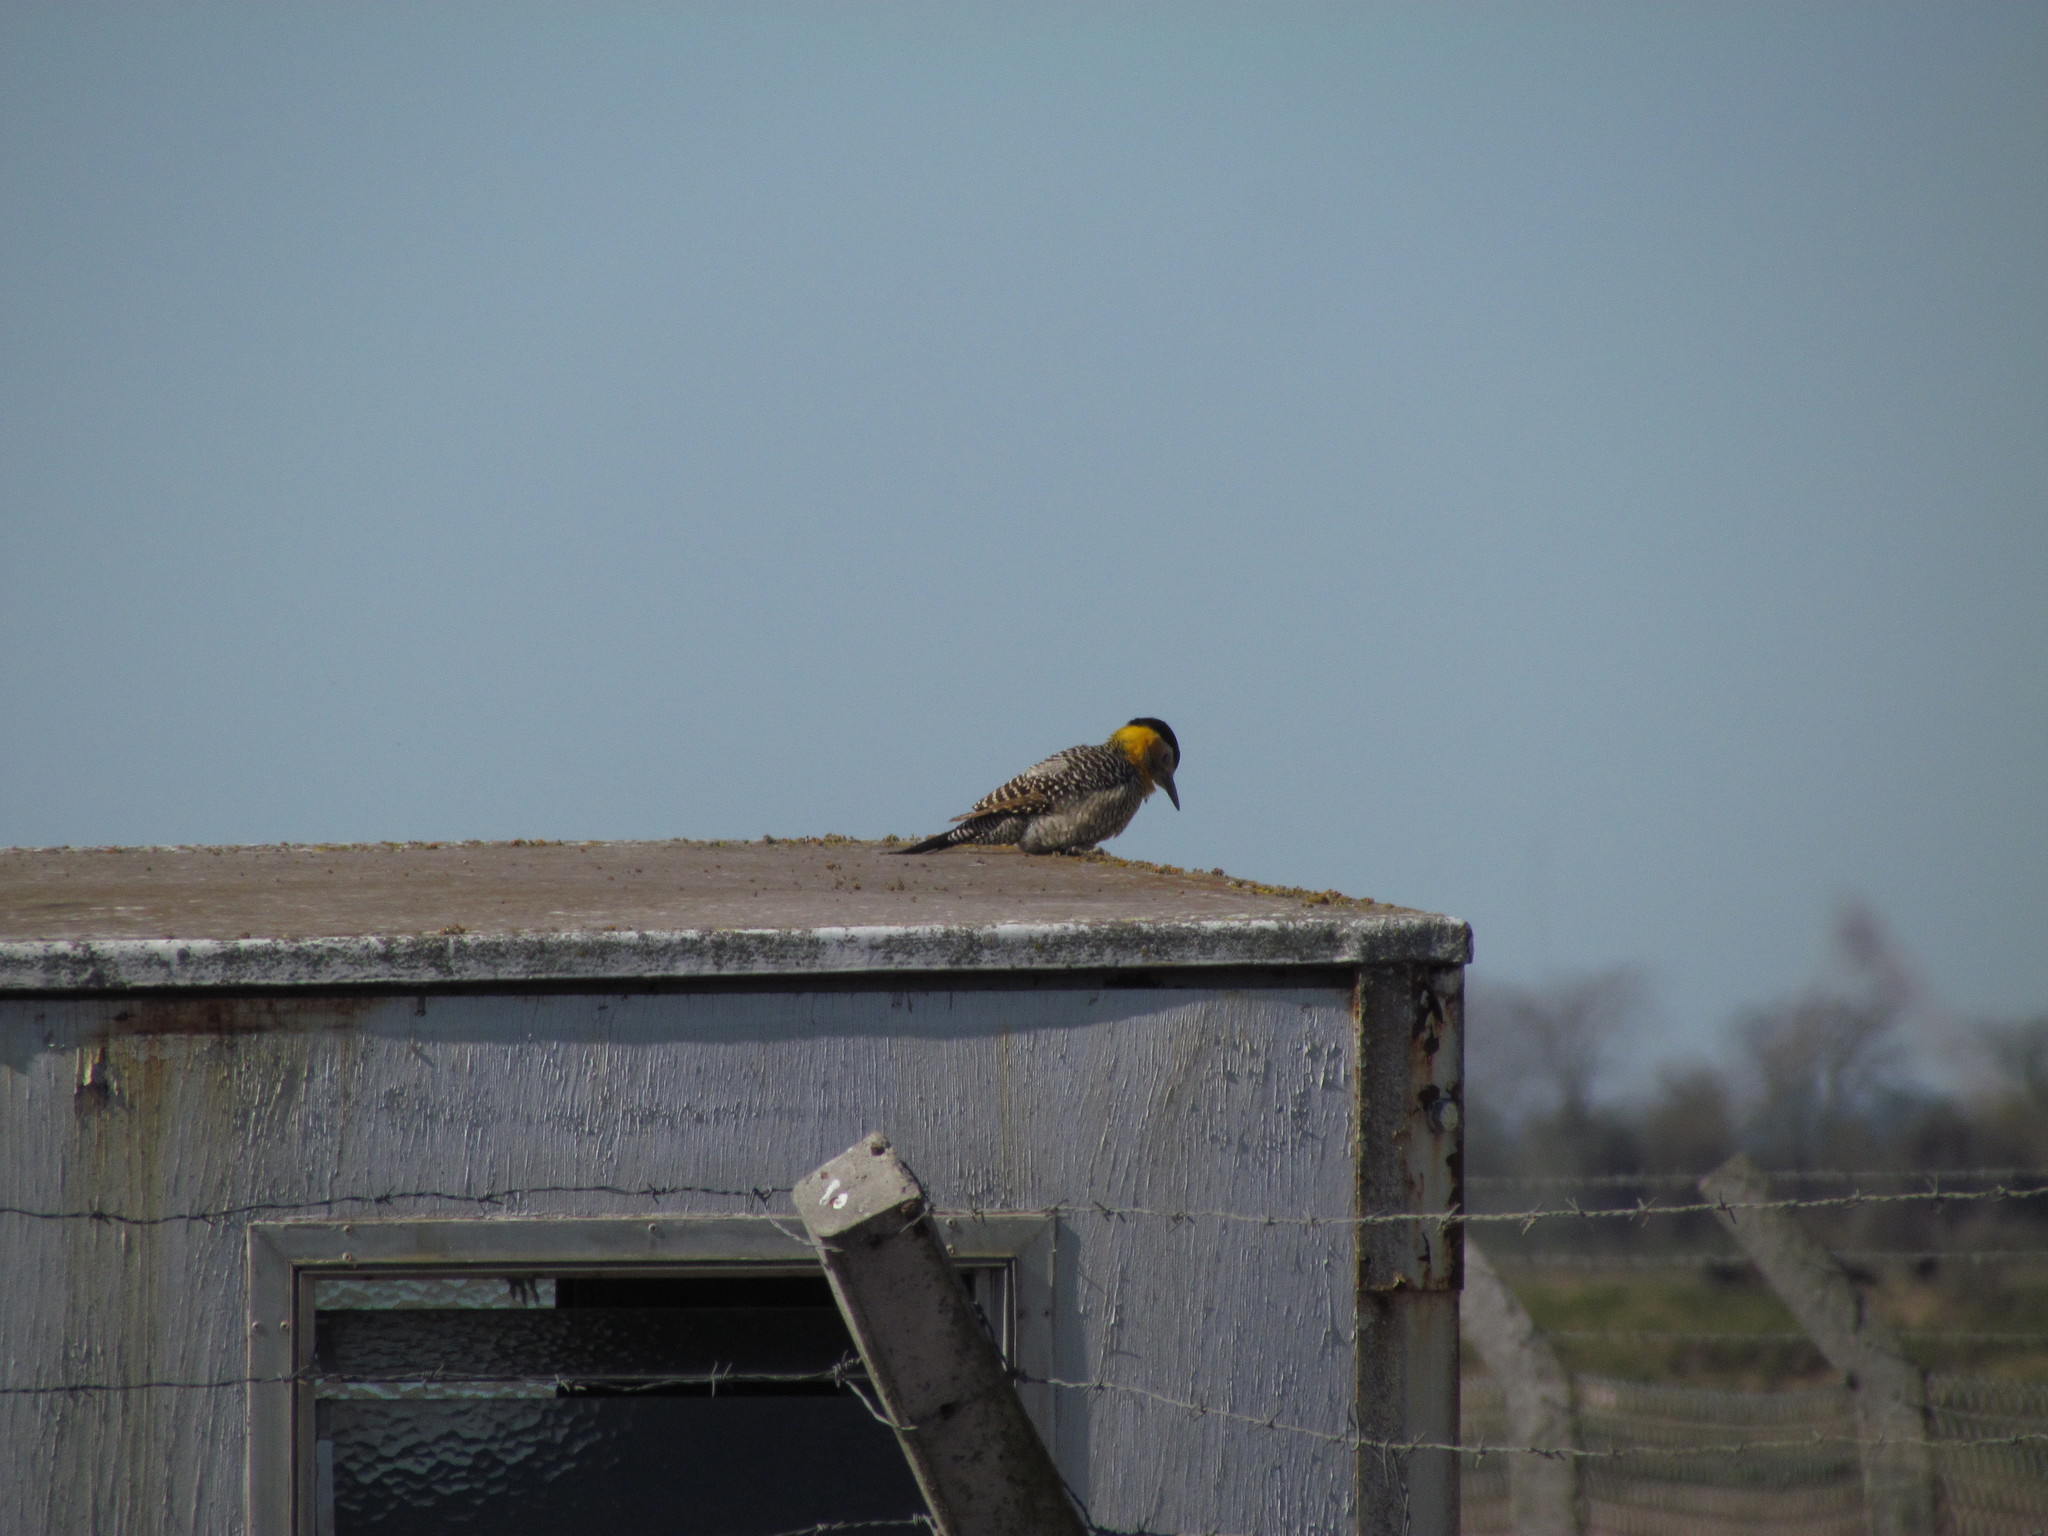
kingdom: Animalia
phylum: Chordata
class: Aves
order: Piciformes
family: Picidae
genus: Colaptes
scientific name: Colaptes campestris
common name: Campo flicker
